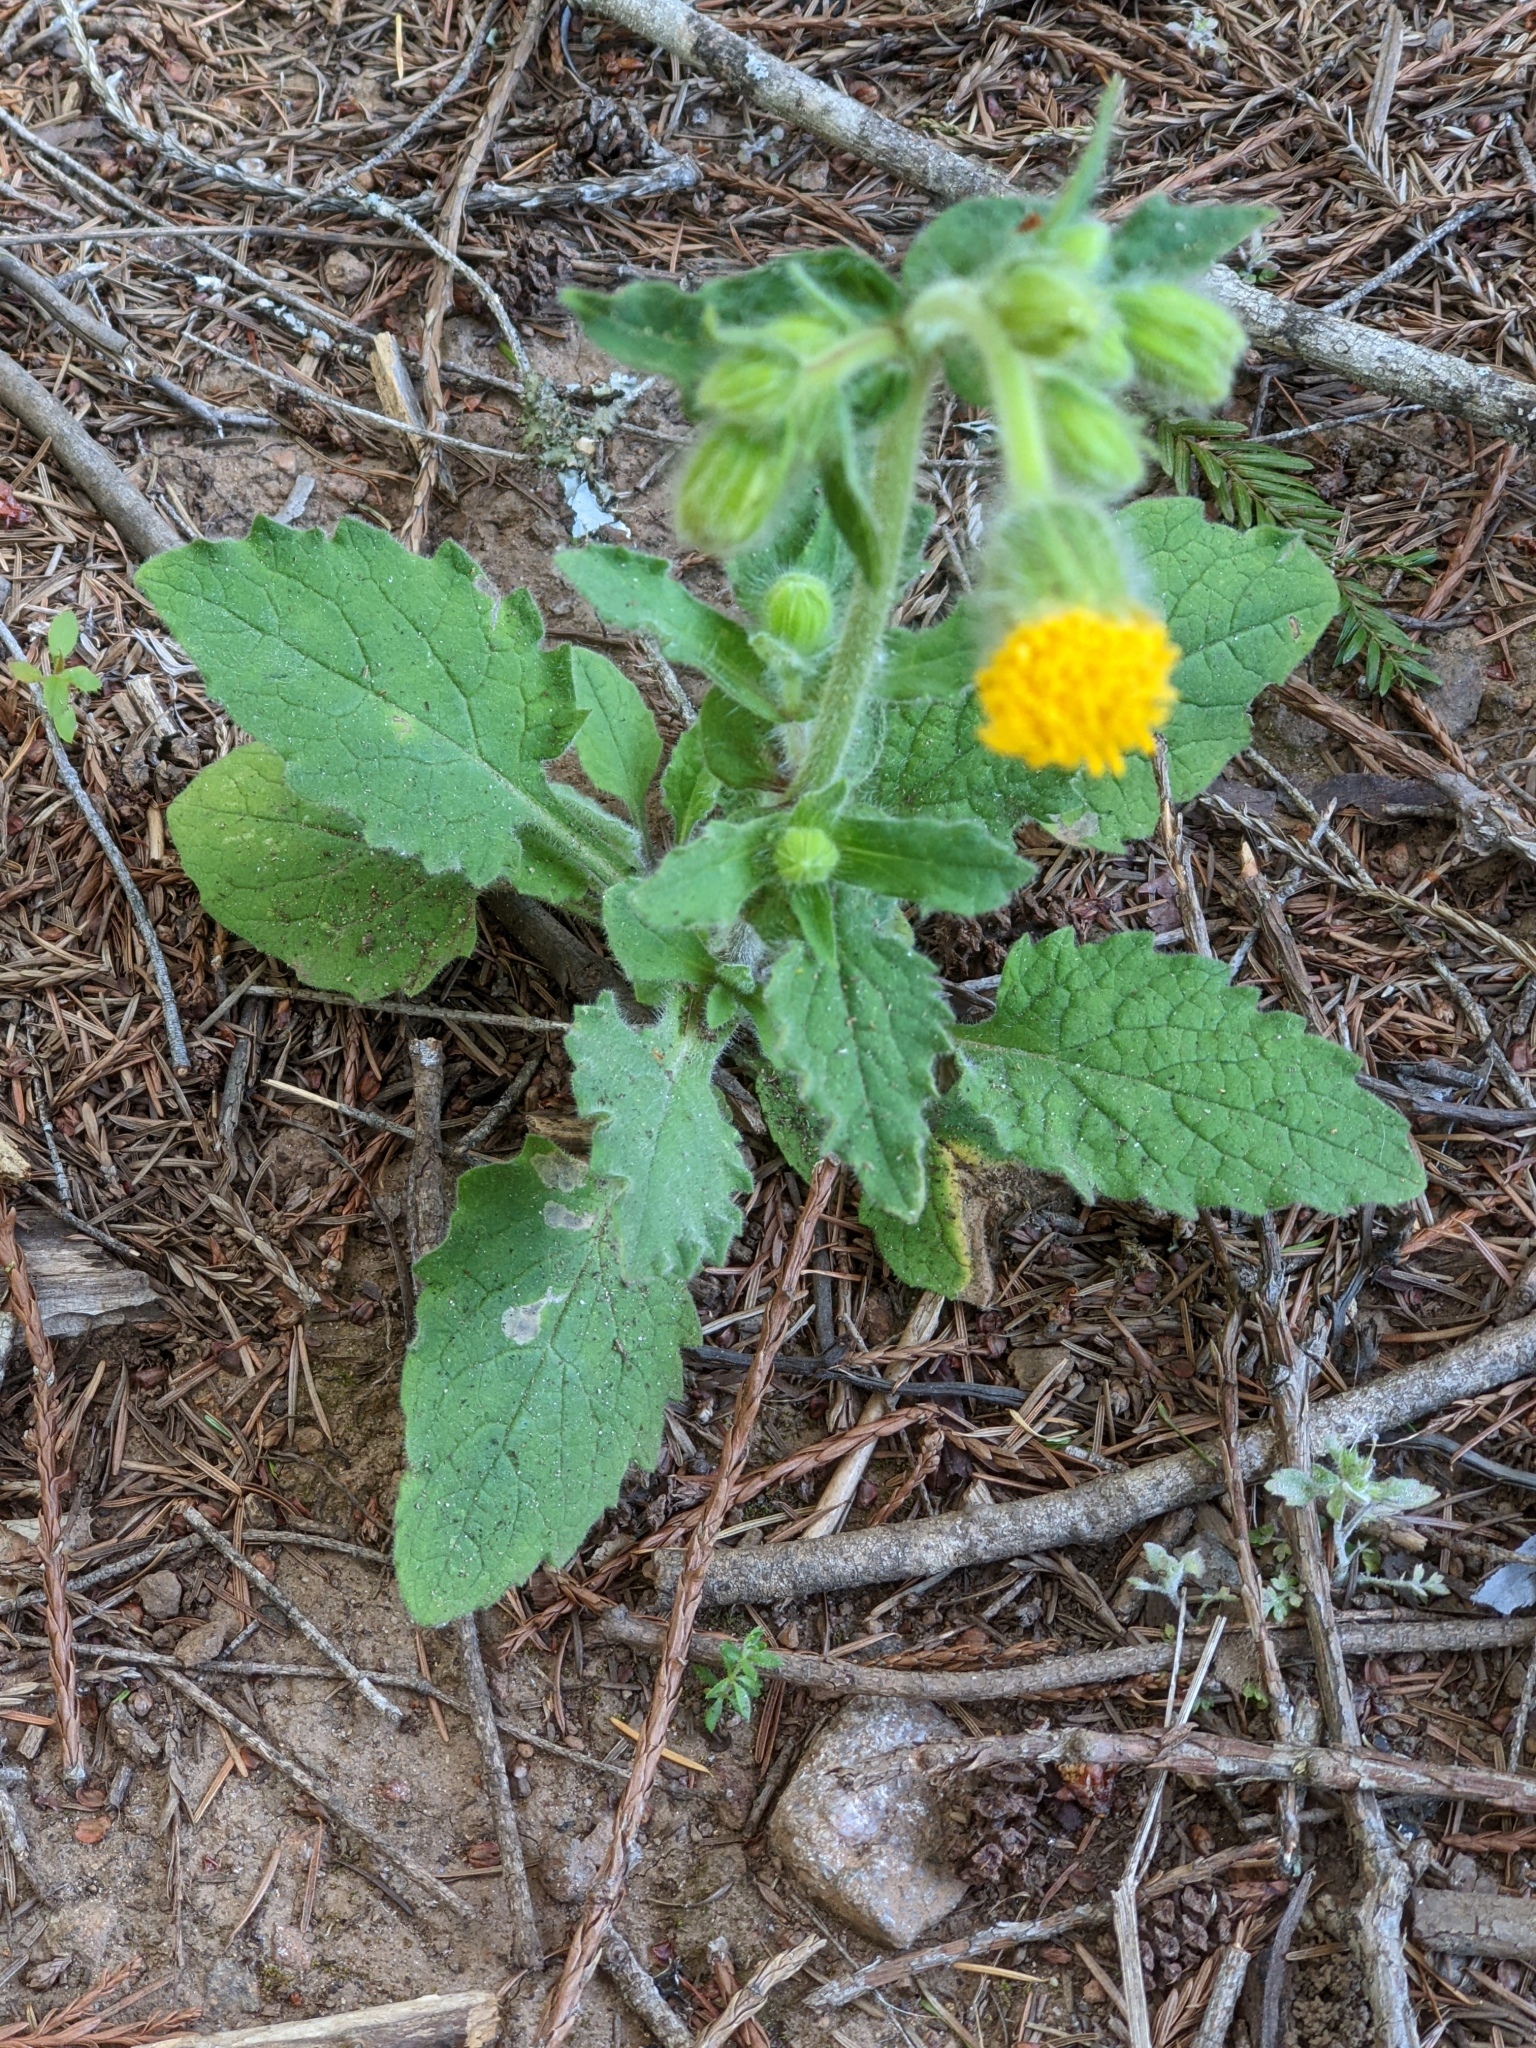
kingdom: Plantae
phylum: Tracheophyta
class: Magnoliopsida
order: Asterales
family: Asteraceae
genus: Arnica
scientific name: Arnica discoidea
